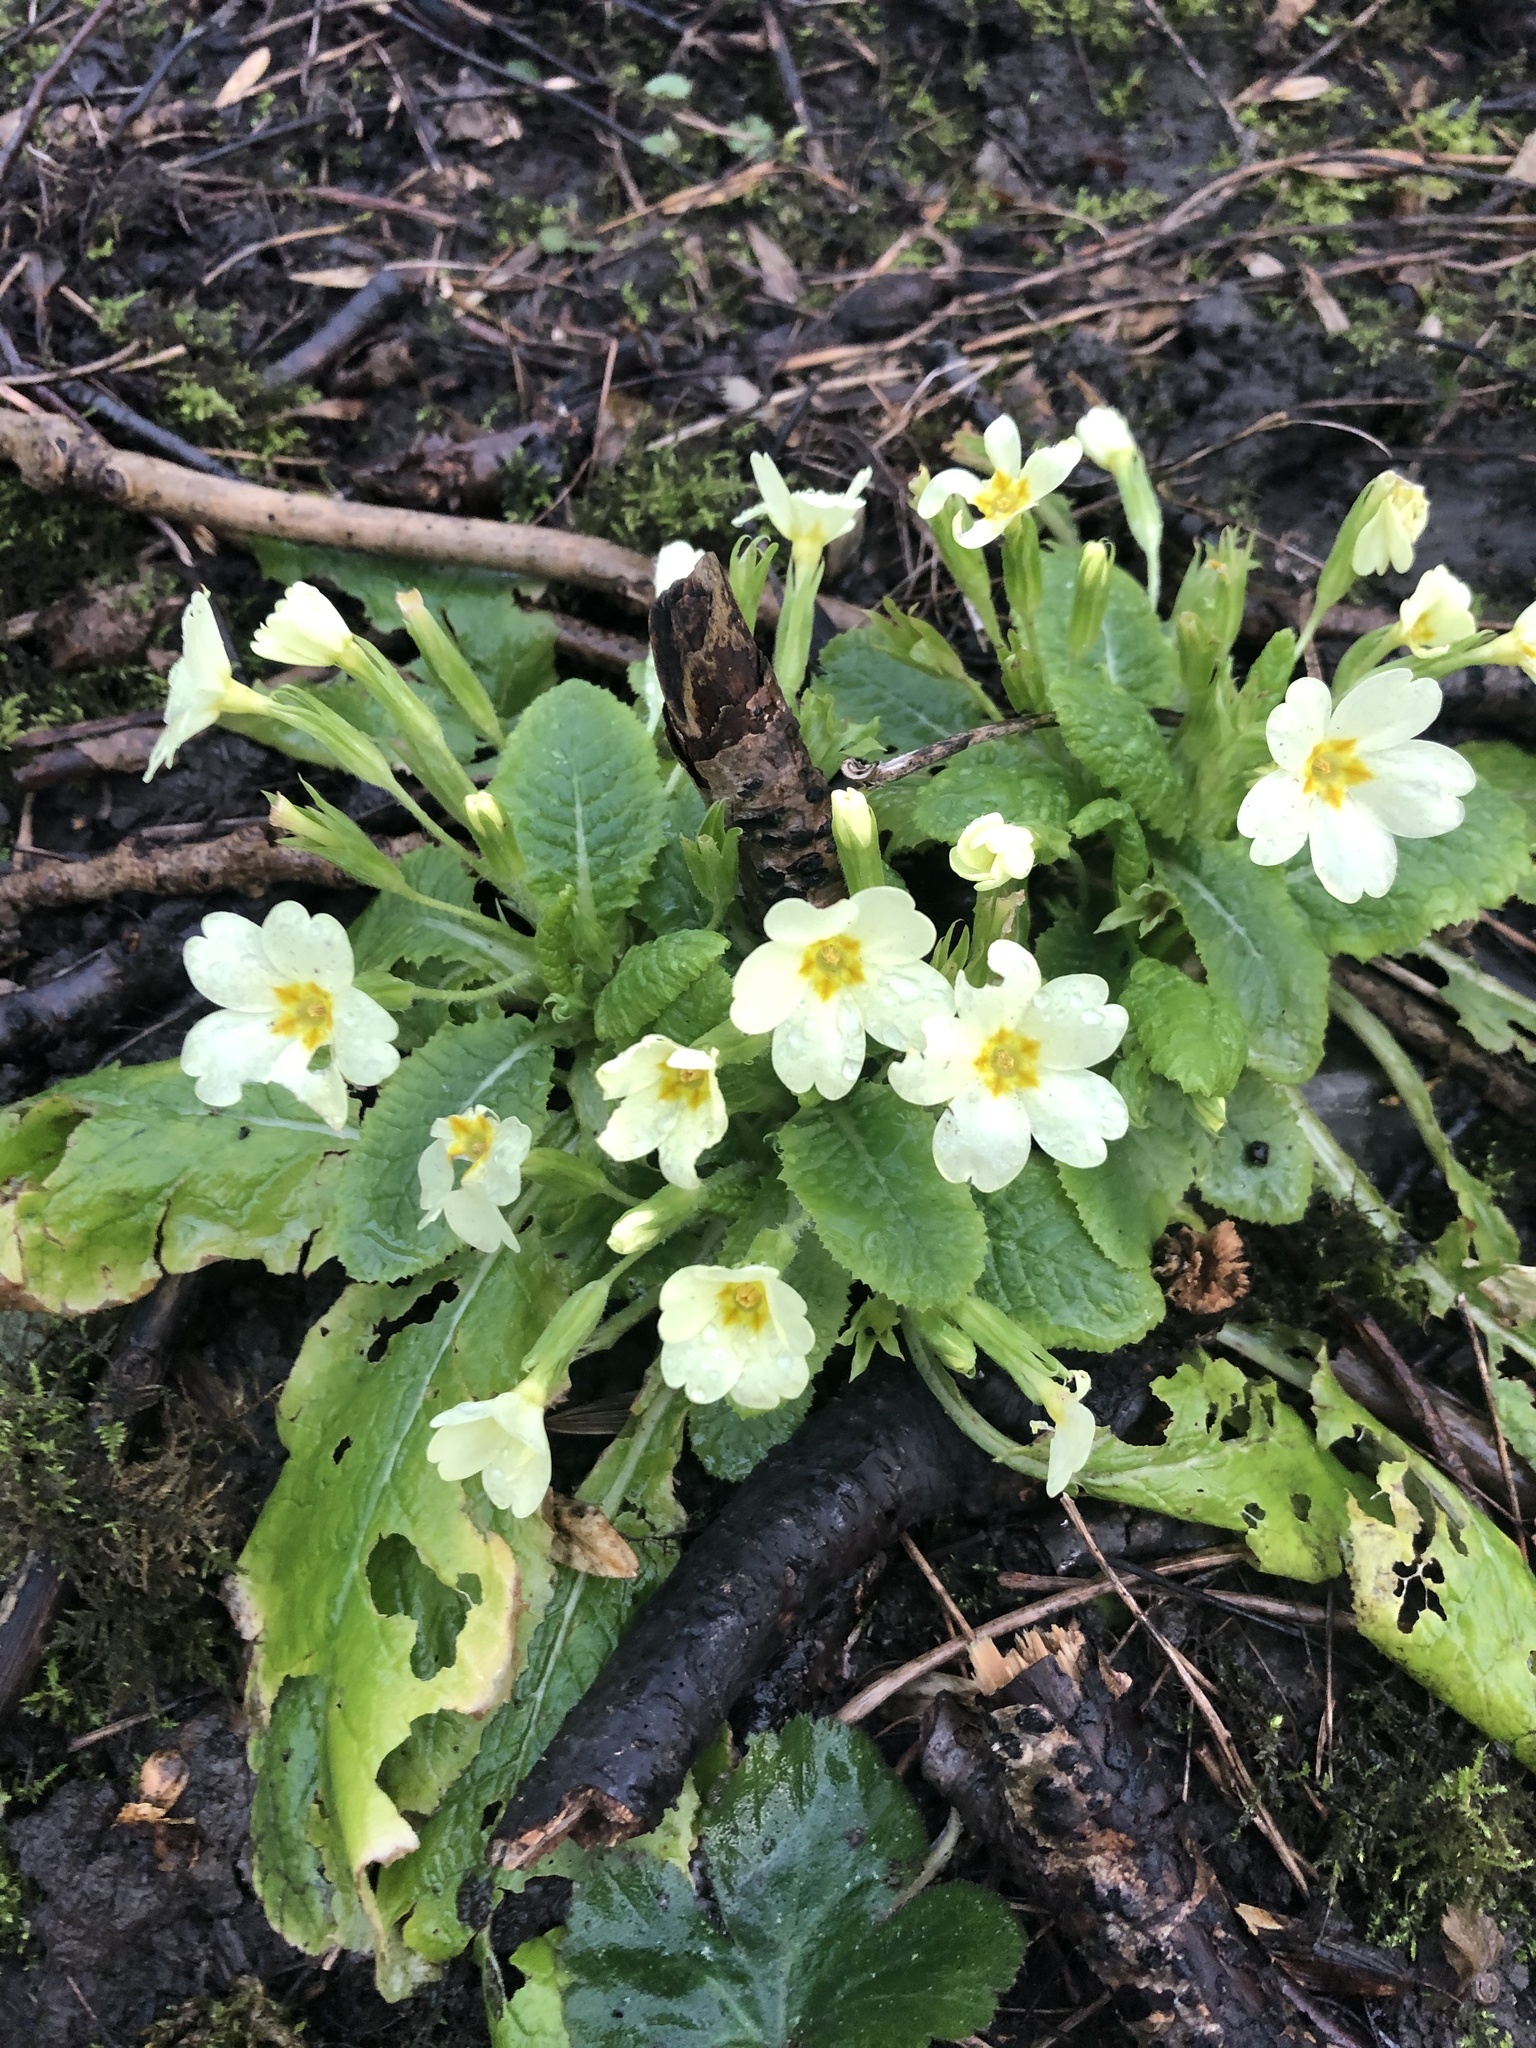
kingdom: Plantae
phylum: Tracheophyta
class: Magnoliopsida
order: Ericales
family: Primulaceae
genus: Primula
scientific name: Primula vulgaris
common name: Primrose
